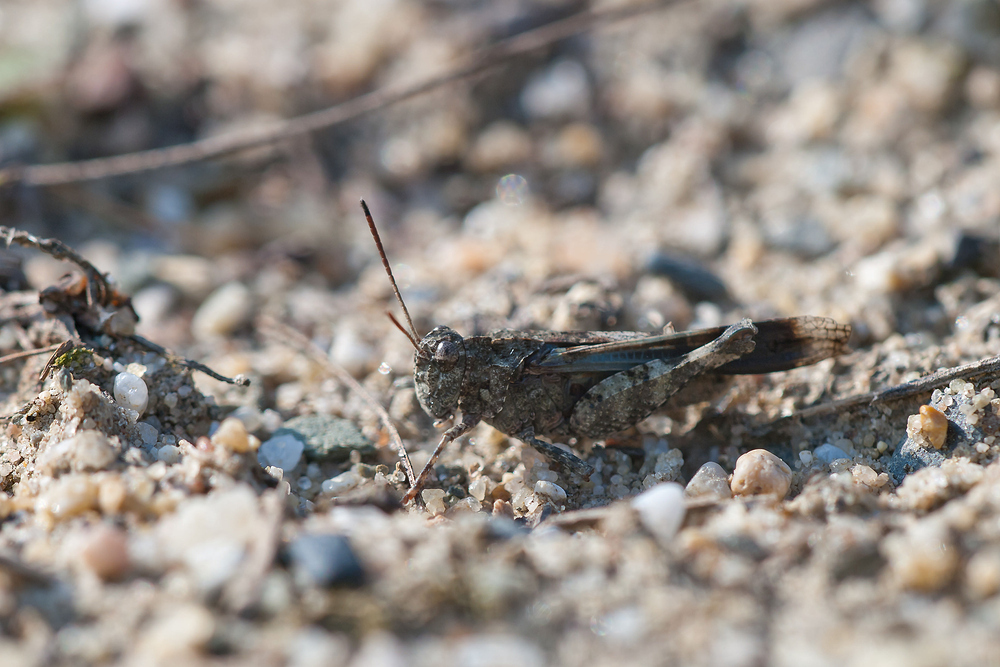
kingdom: Animalia
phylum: Arthropoda
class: Insecta
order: Orthoptera
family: Acrididae
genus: Oedipoda
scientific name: Oedipoda caerulescens
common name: Blue-winged grasshopper
